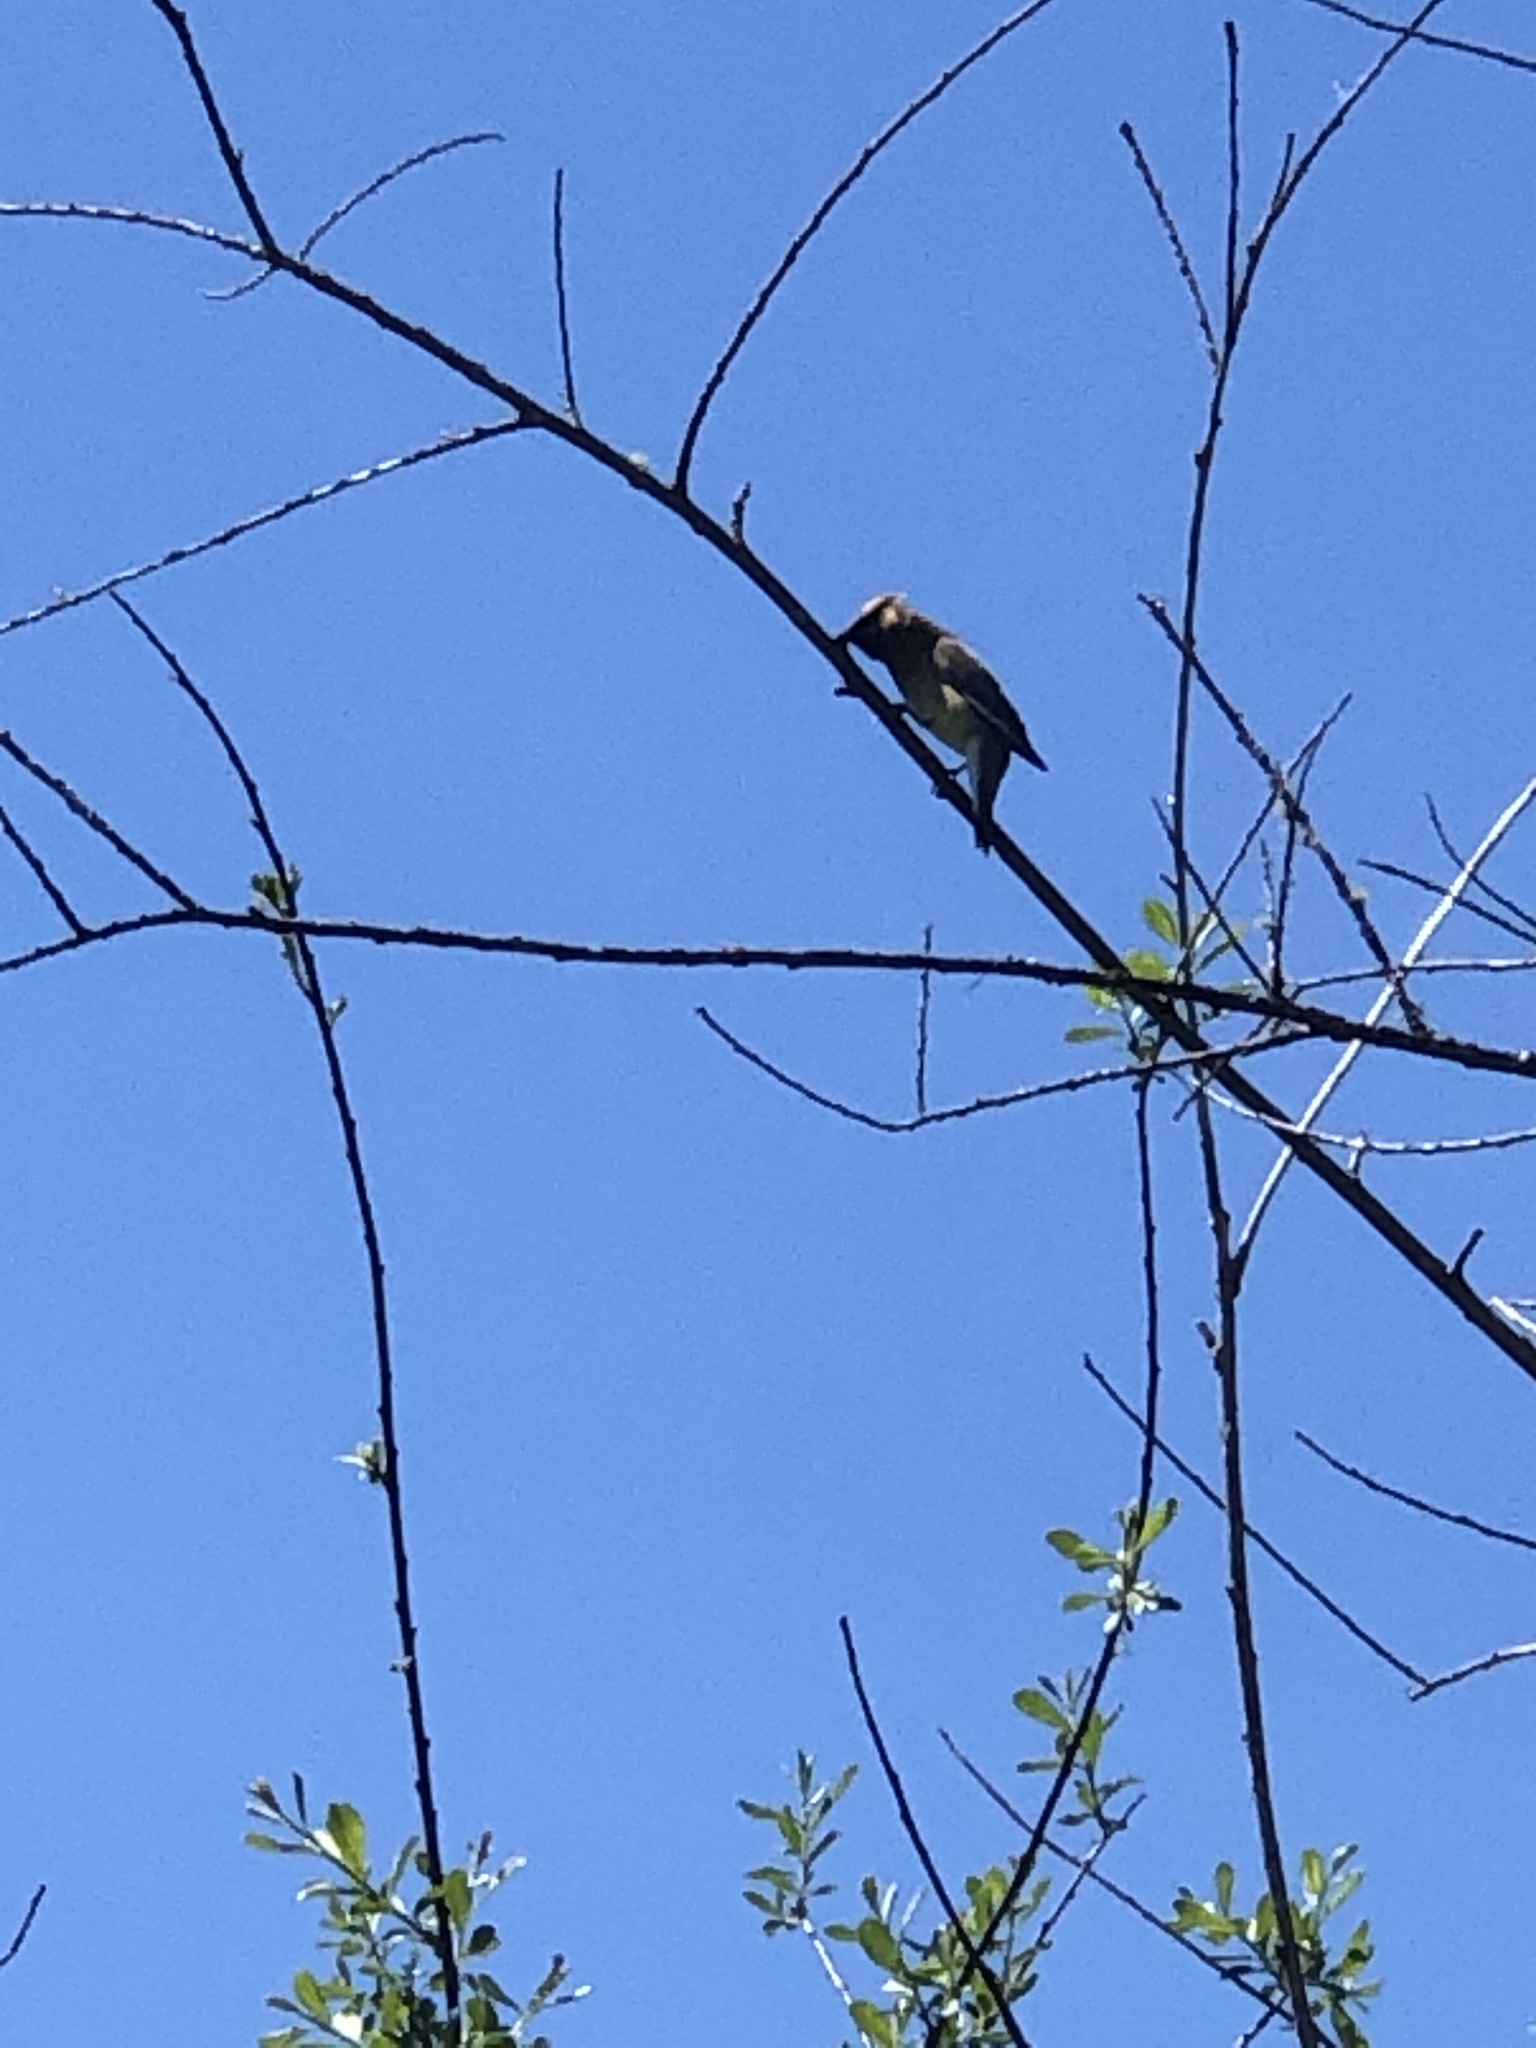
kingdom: Animalia
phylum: Chordata
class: Aves
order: Passeriformes
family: Bombycillidae
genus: Bombycilla
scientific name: Bombycilla cedrorum
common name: Cedar waxwing
